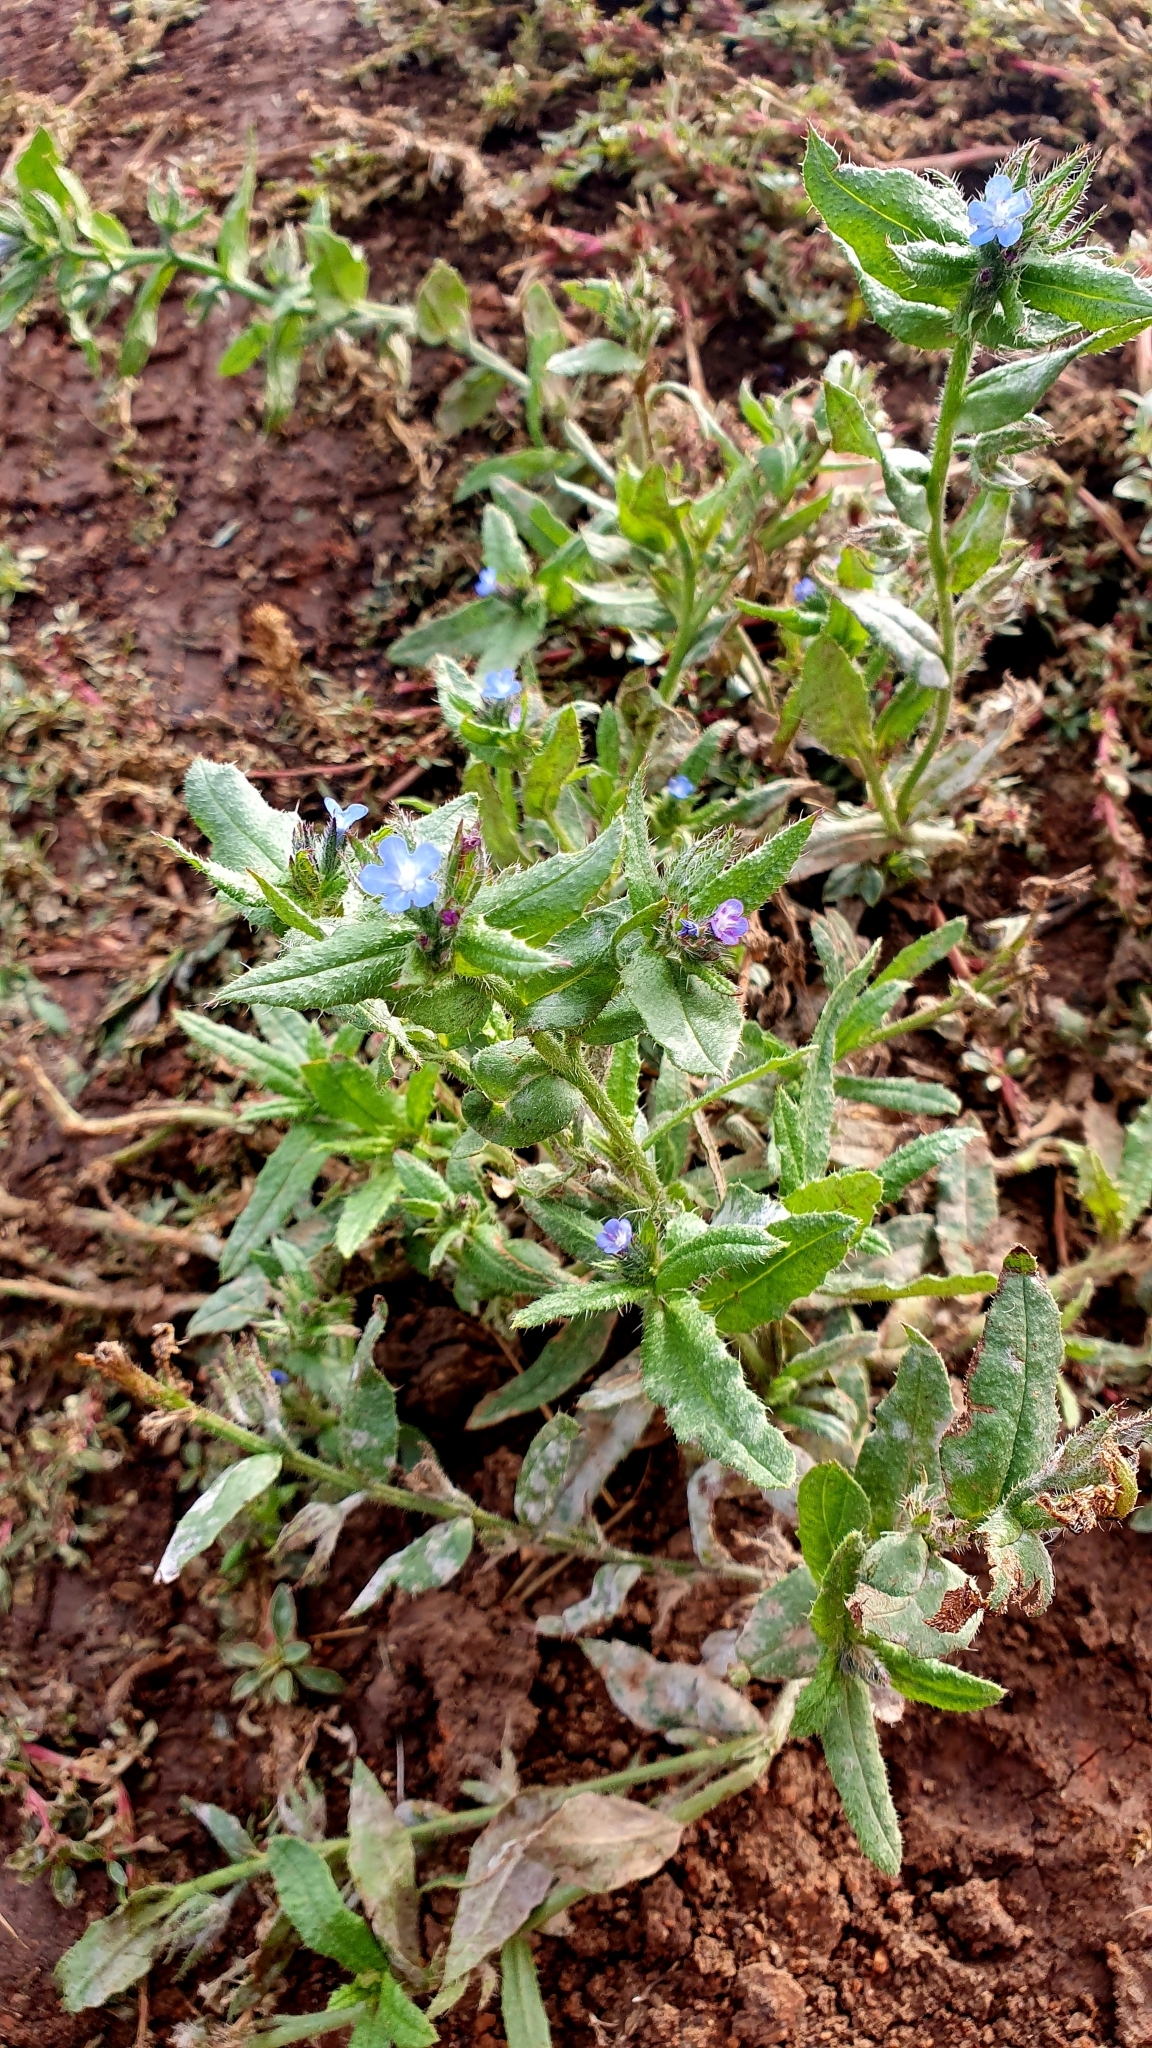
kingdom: Plantae
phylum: Tracheophyta
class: Magnoliopsida
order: Boraginales
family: Boraginaceae
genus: Lycopsis
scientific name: Lycopsis arvensis
